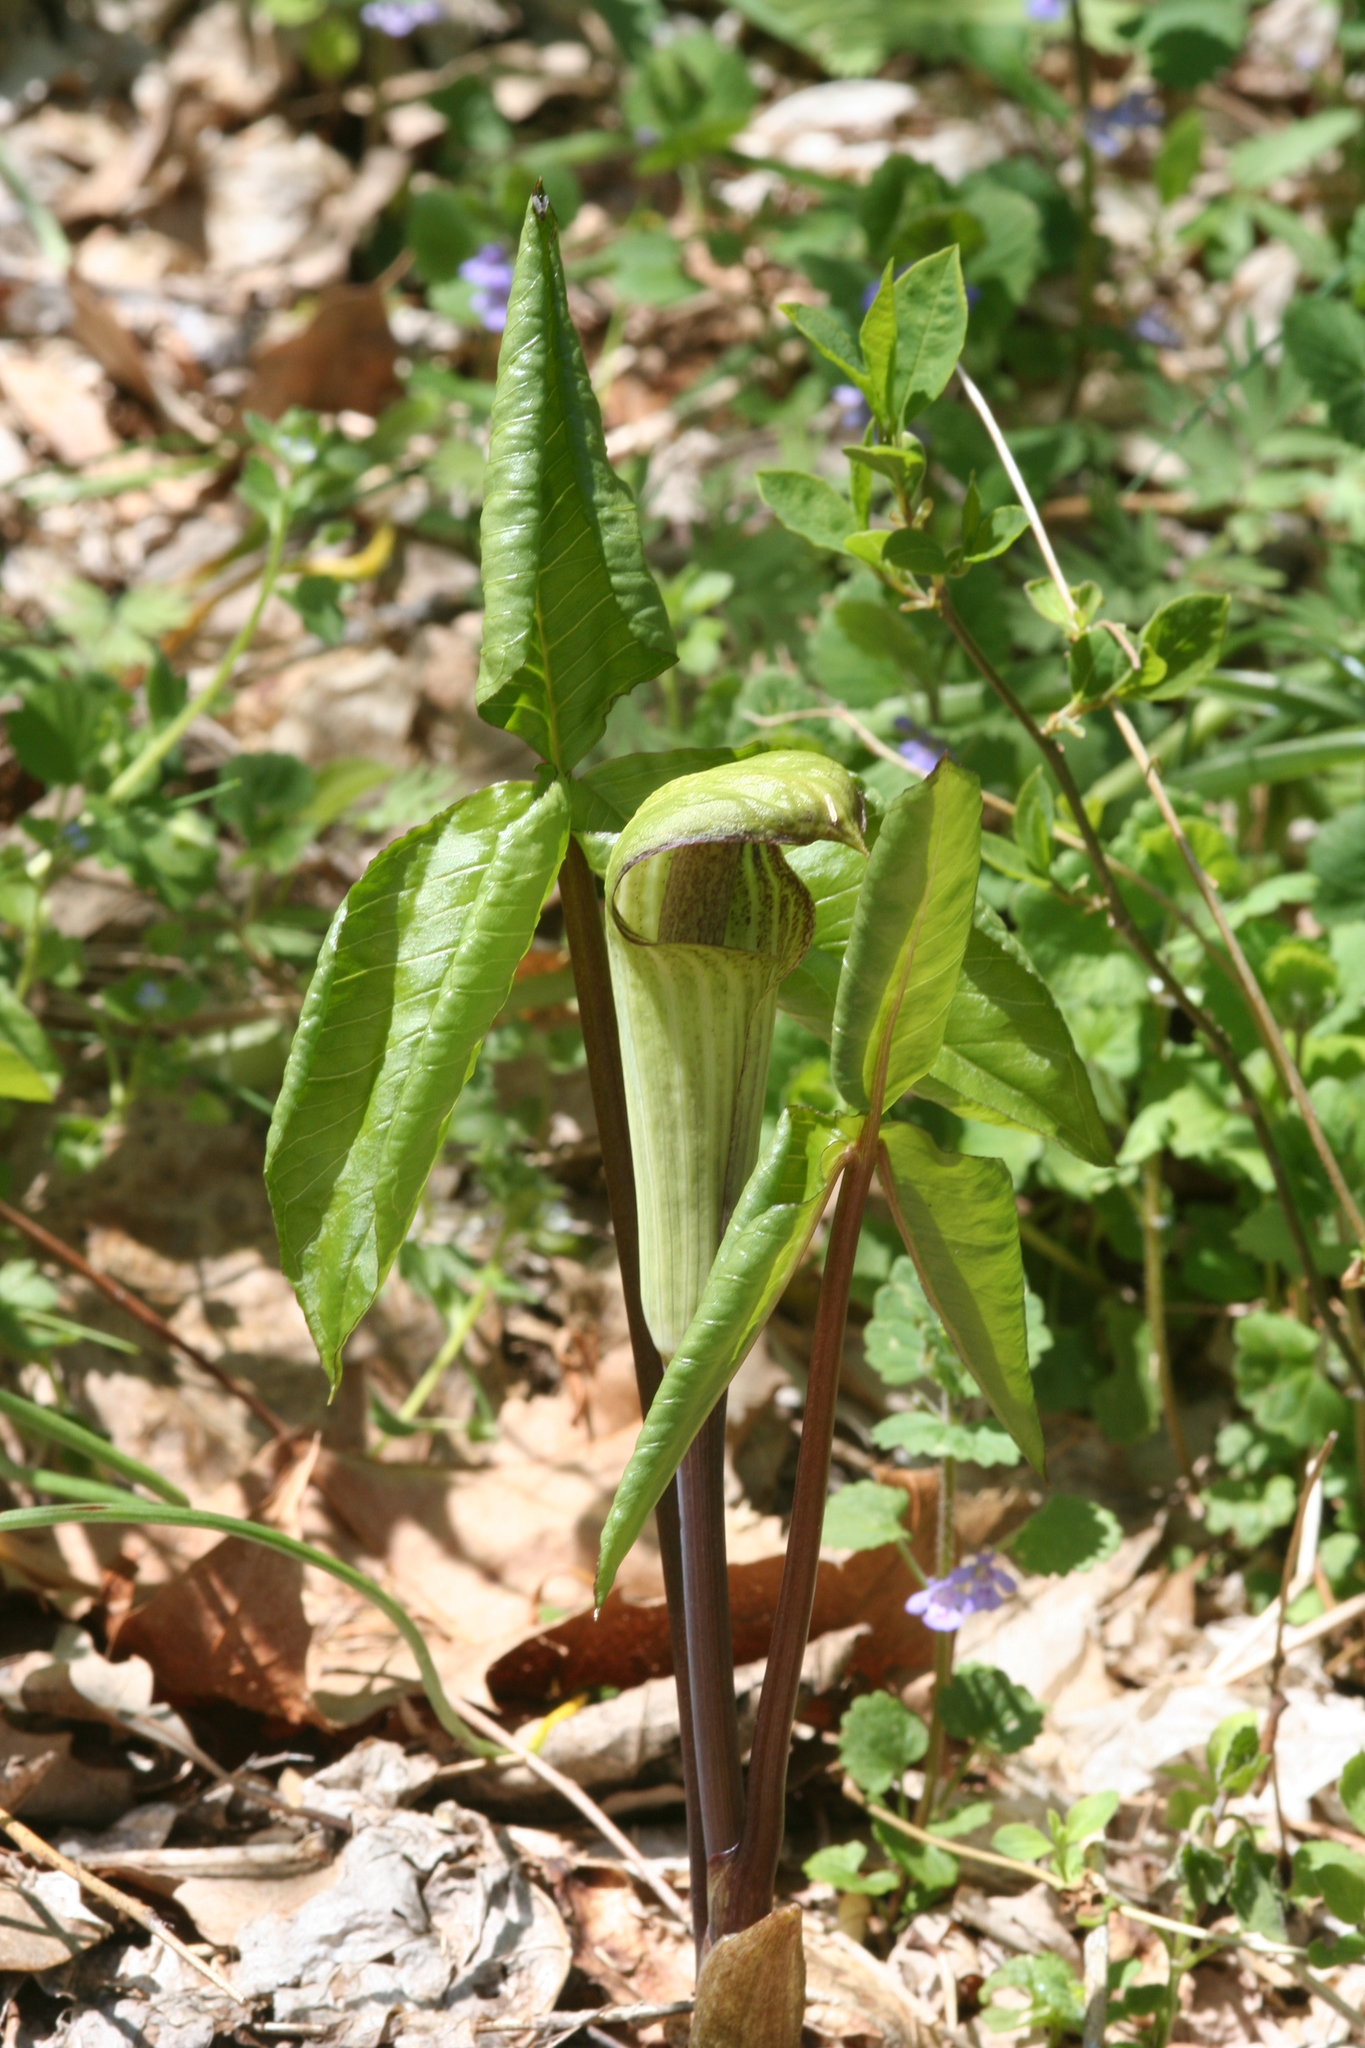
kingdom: Plantae
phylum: Tracheophyta
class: Liliopsida
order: Alismatales
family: Araceae
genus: Arisaema
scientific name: Arisaema triphyllum
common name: Jack-in-the-pulpit
